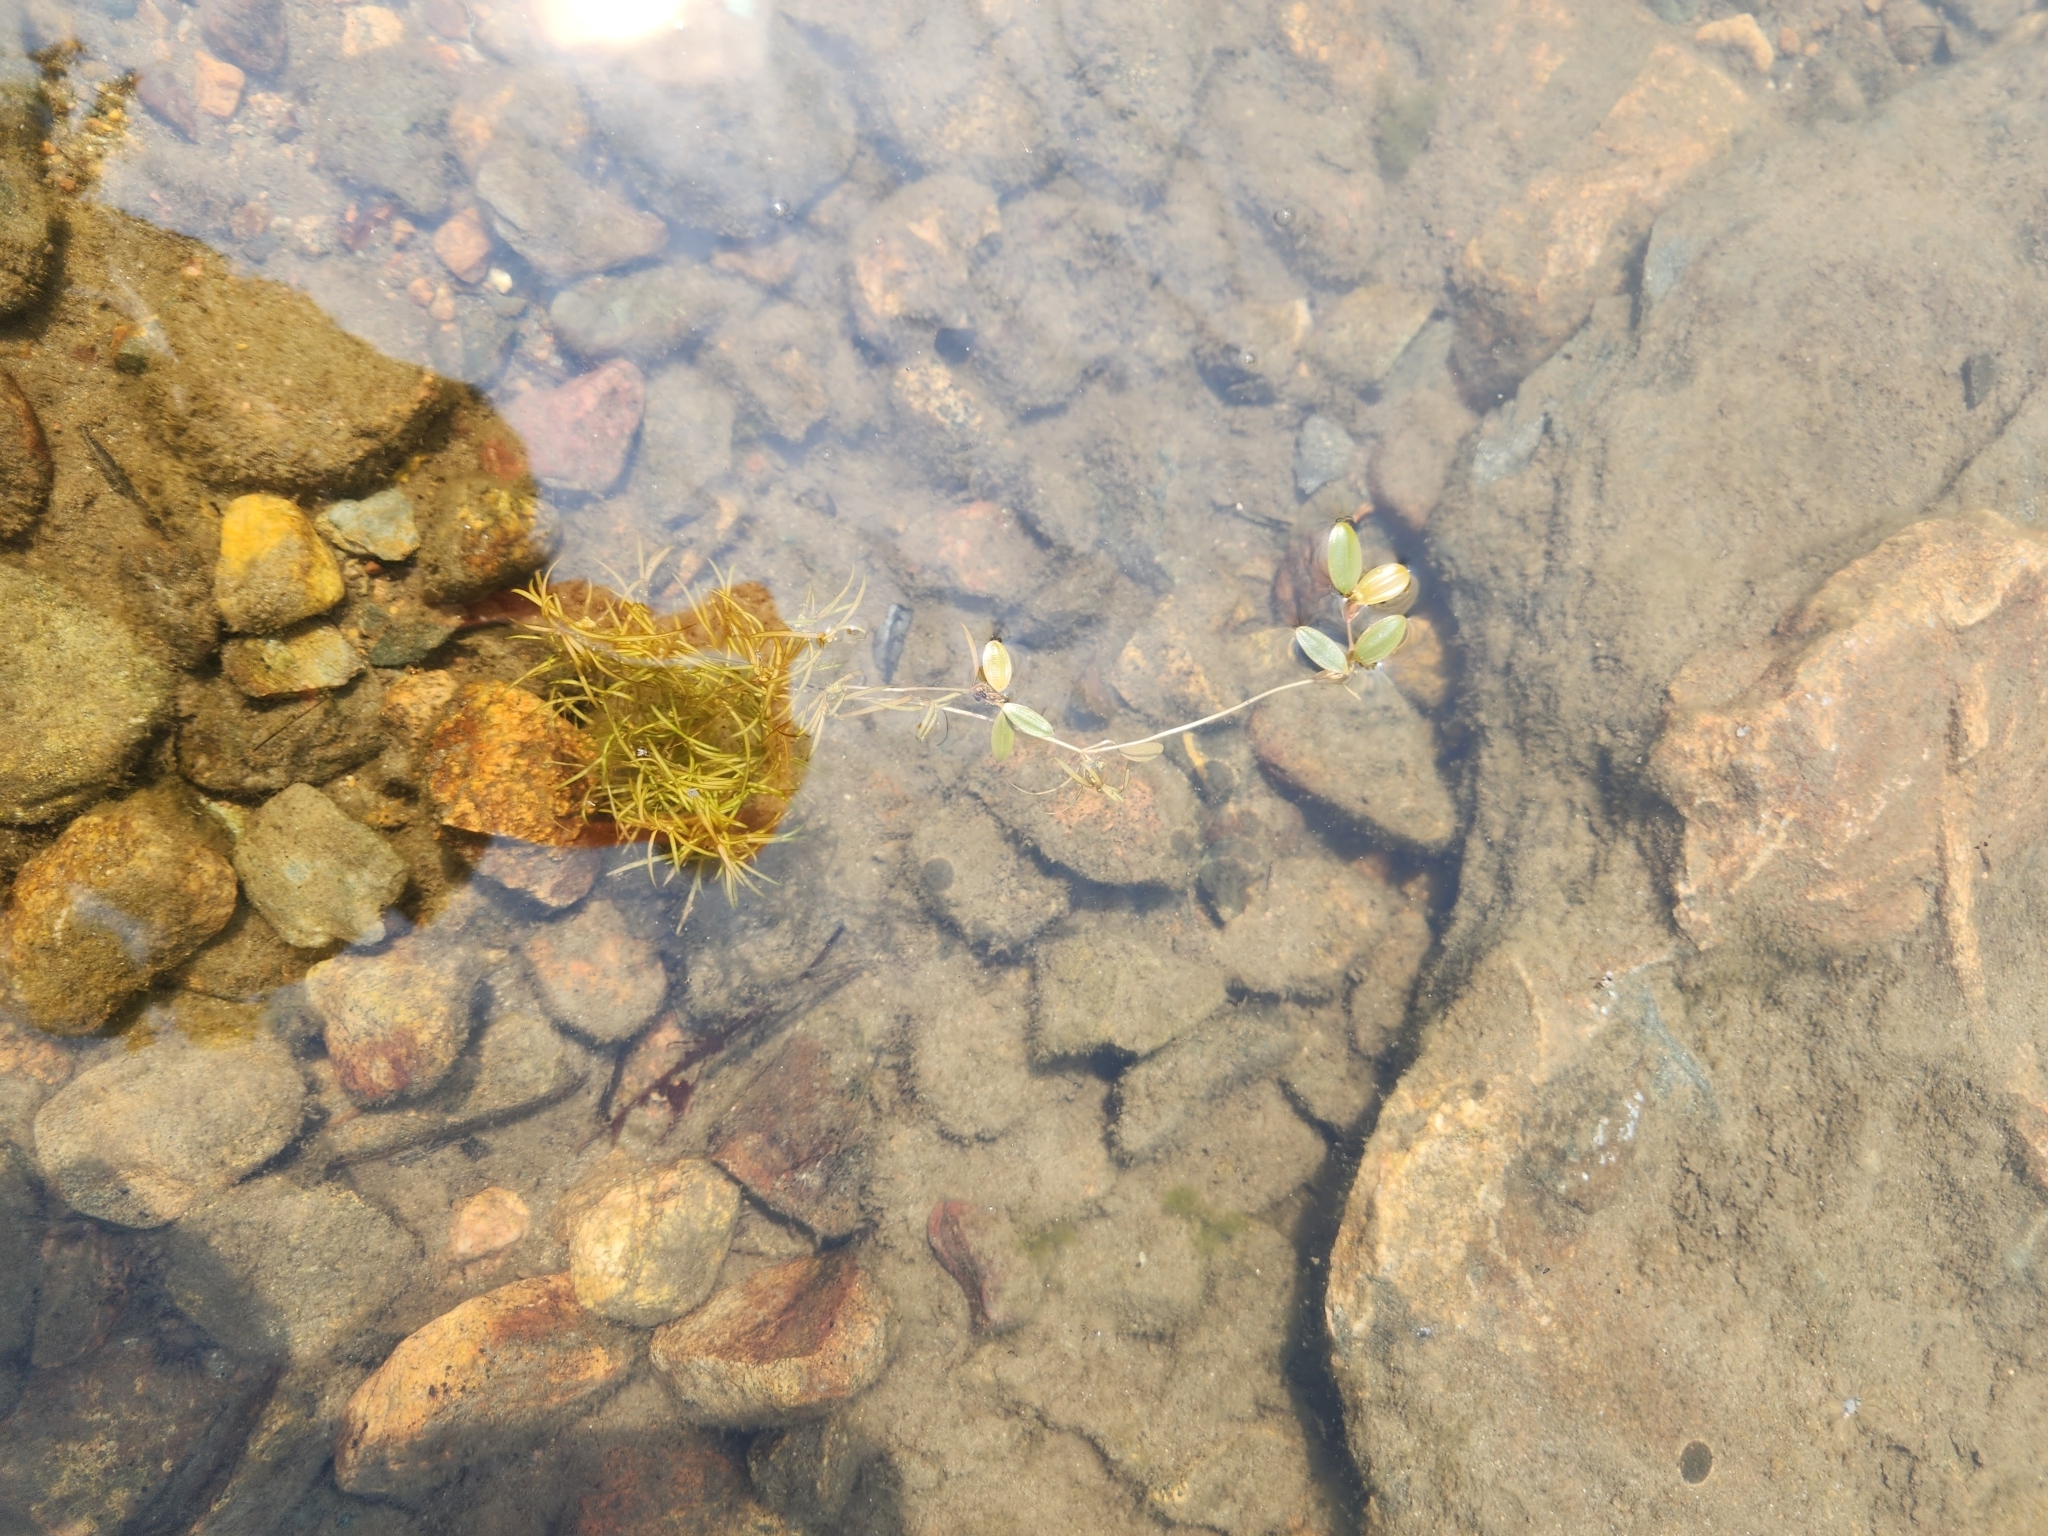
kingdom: Plantae
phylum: Tracheophyta
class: Liliopsida
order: Alismatales
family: Potamogetonaceae
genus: Potamogeton
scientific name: Potamogeton spirillus
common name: Northern snail-seed pondweed
